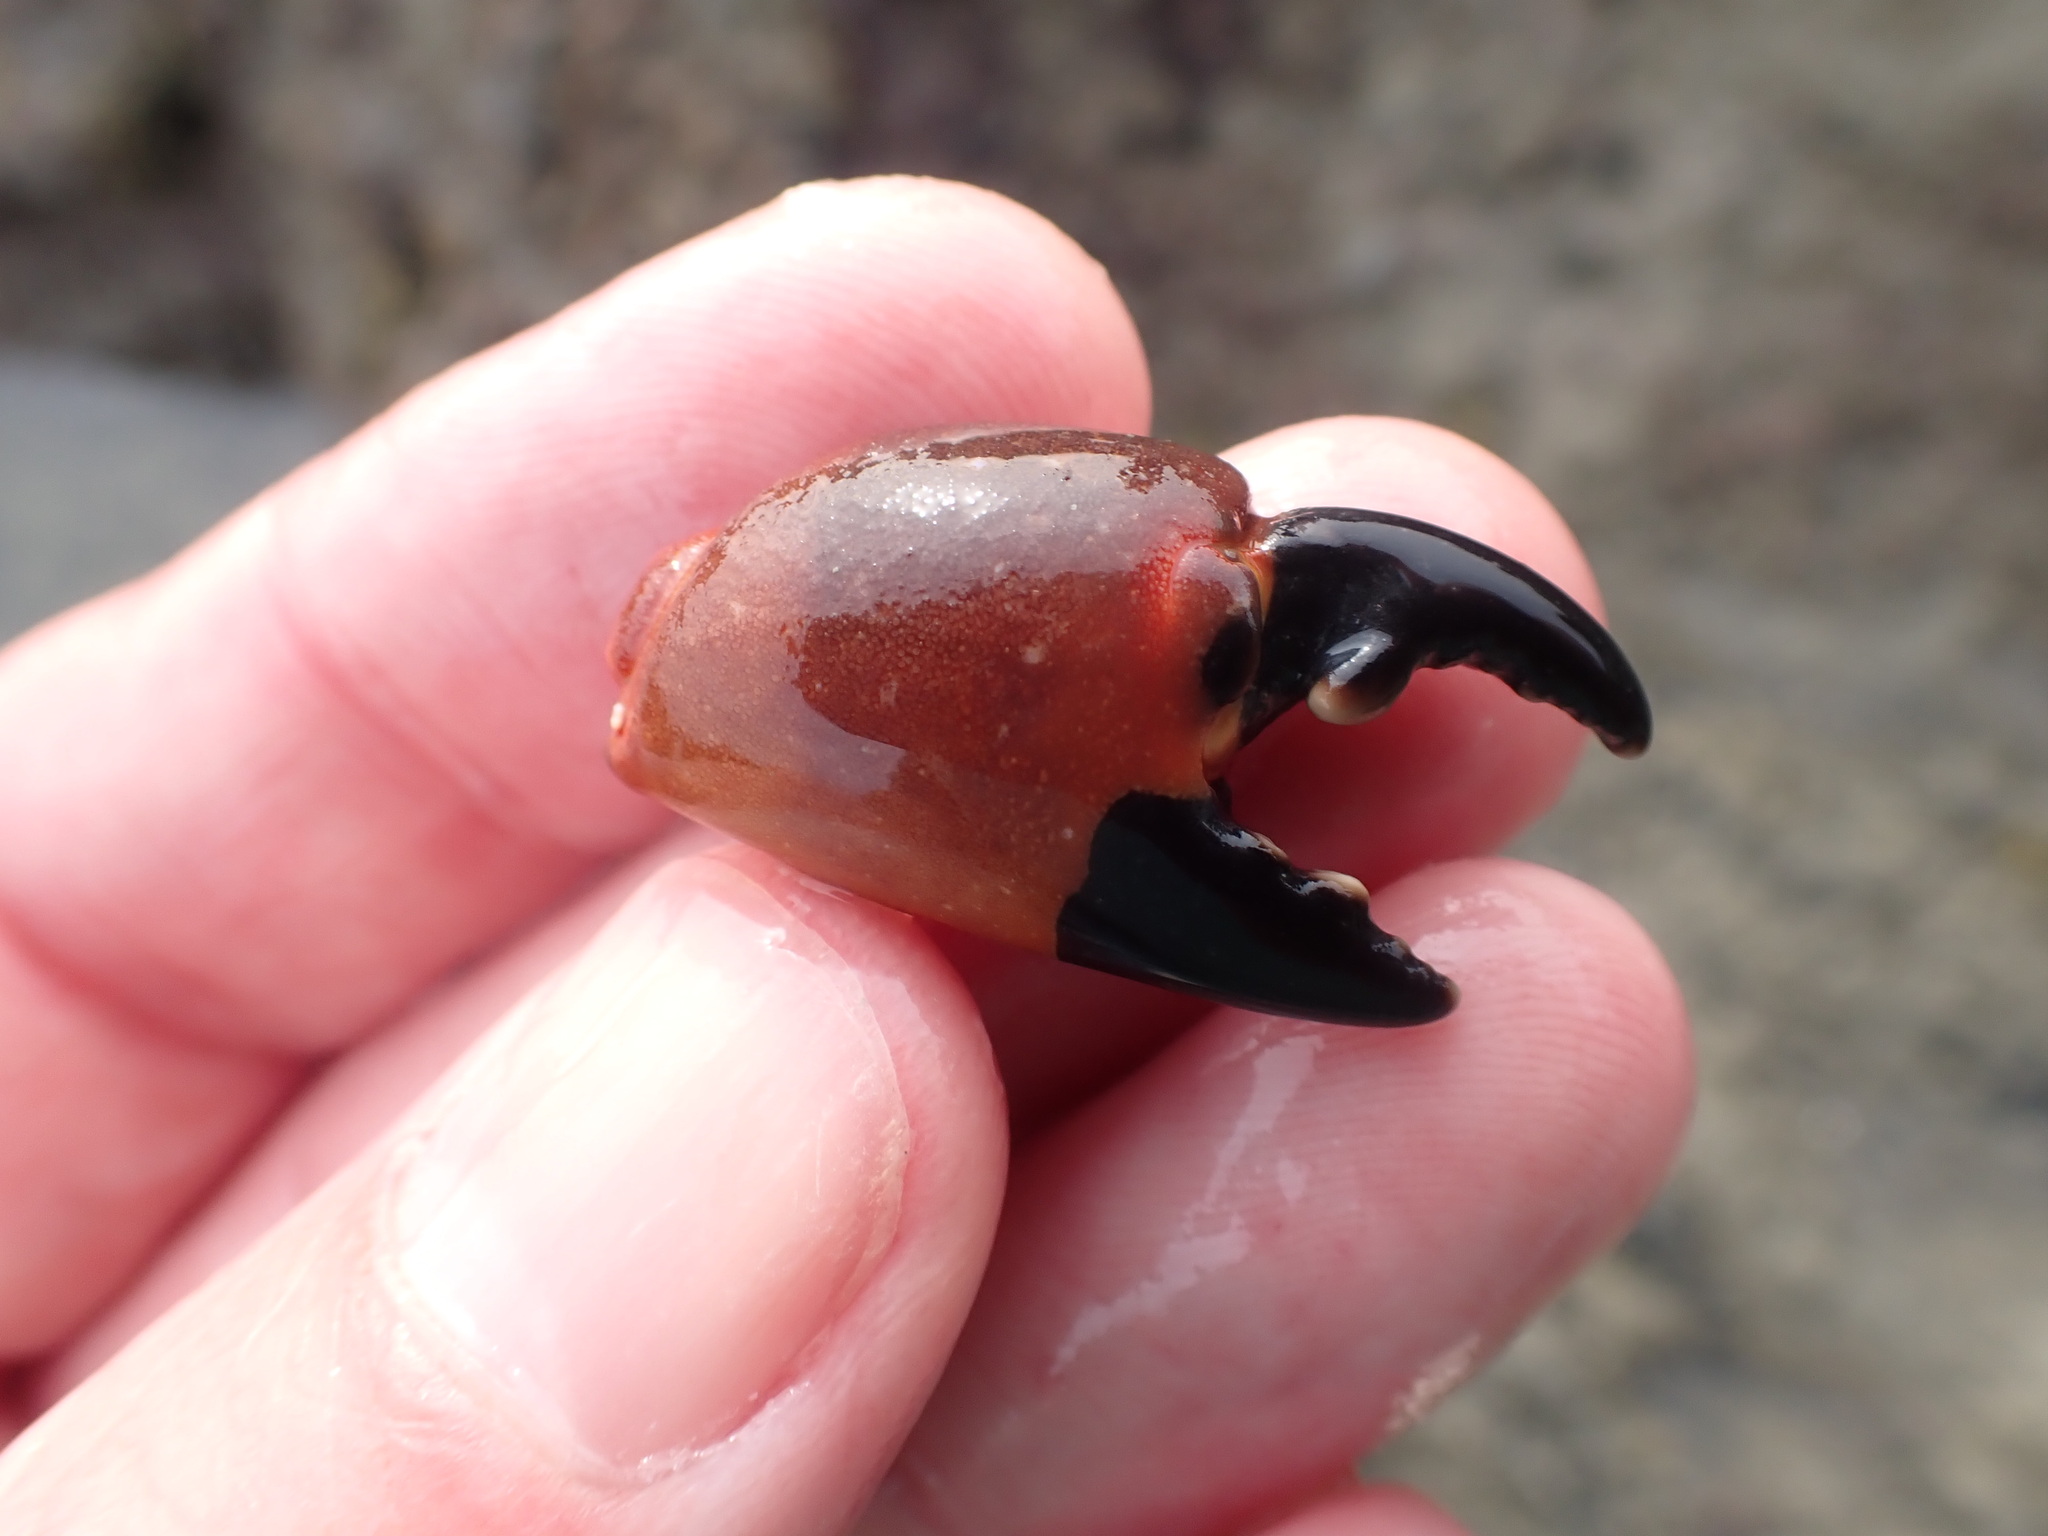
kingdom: Animalia
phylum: Arthropoda
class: Malacostraca
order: Decapoda
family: Oziidae
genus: Ozius
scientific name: Ozius deplanatus
